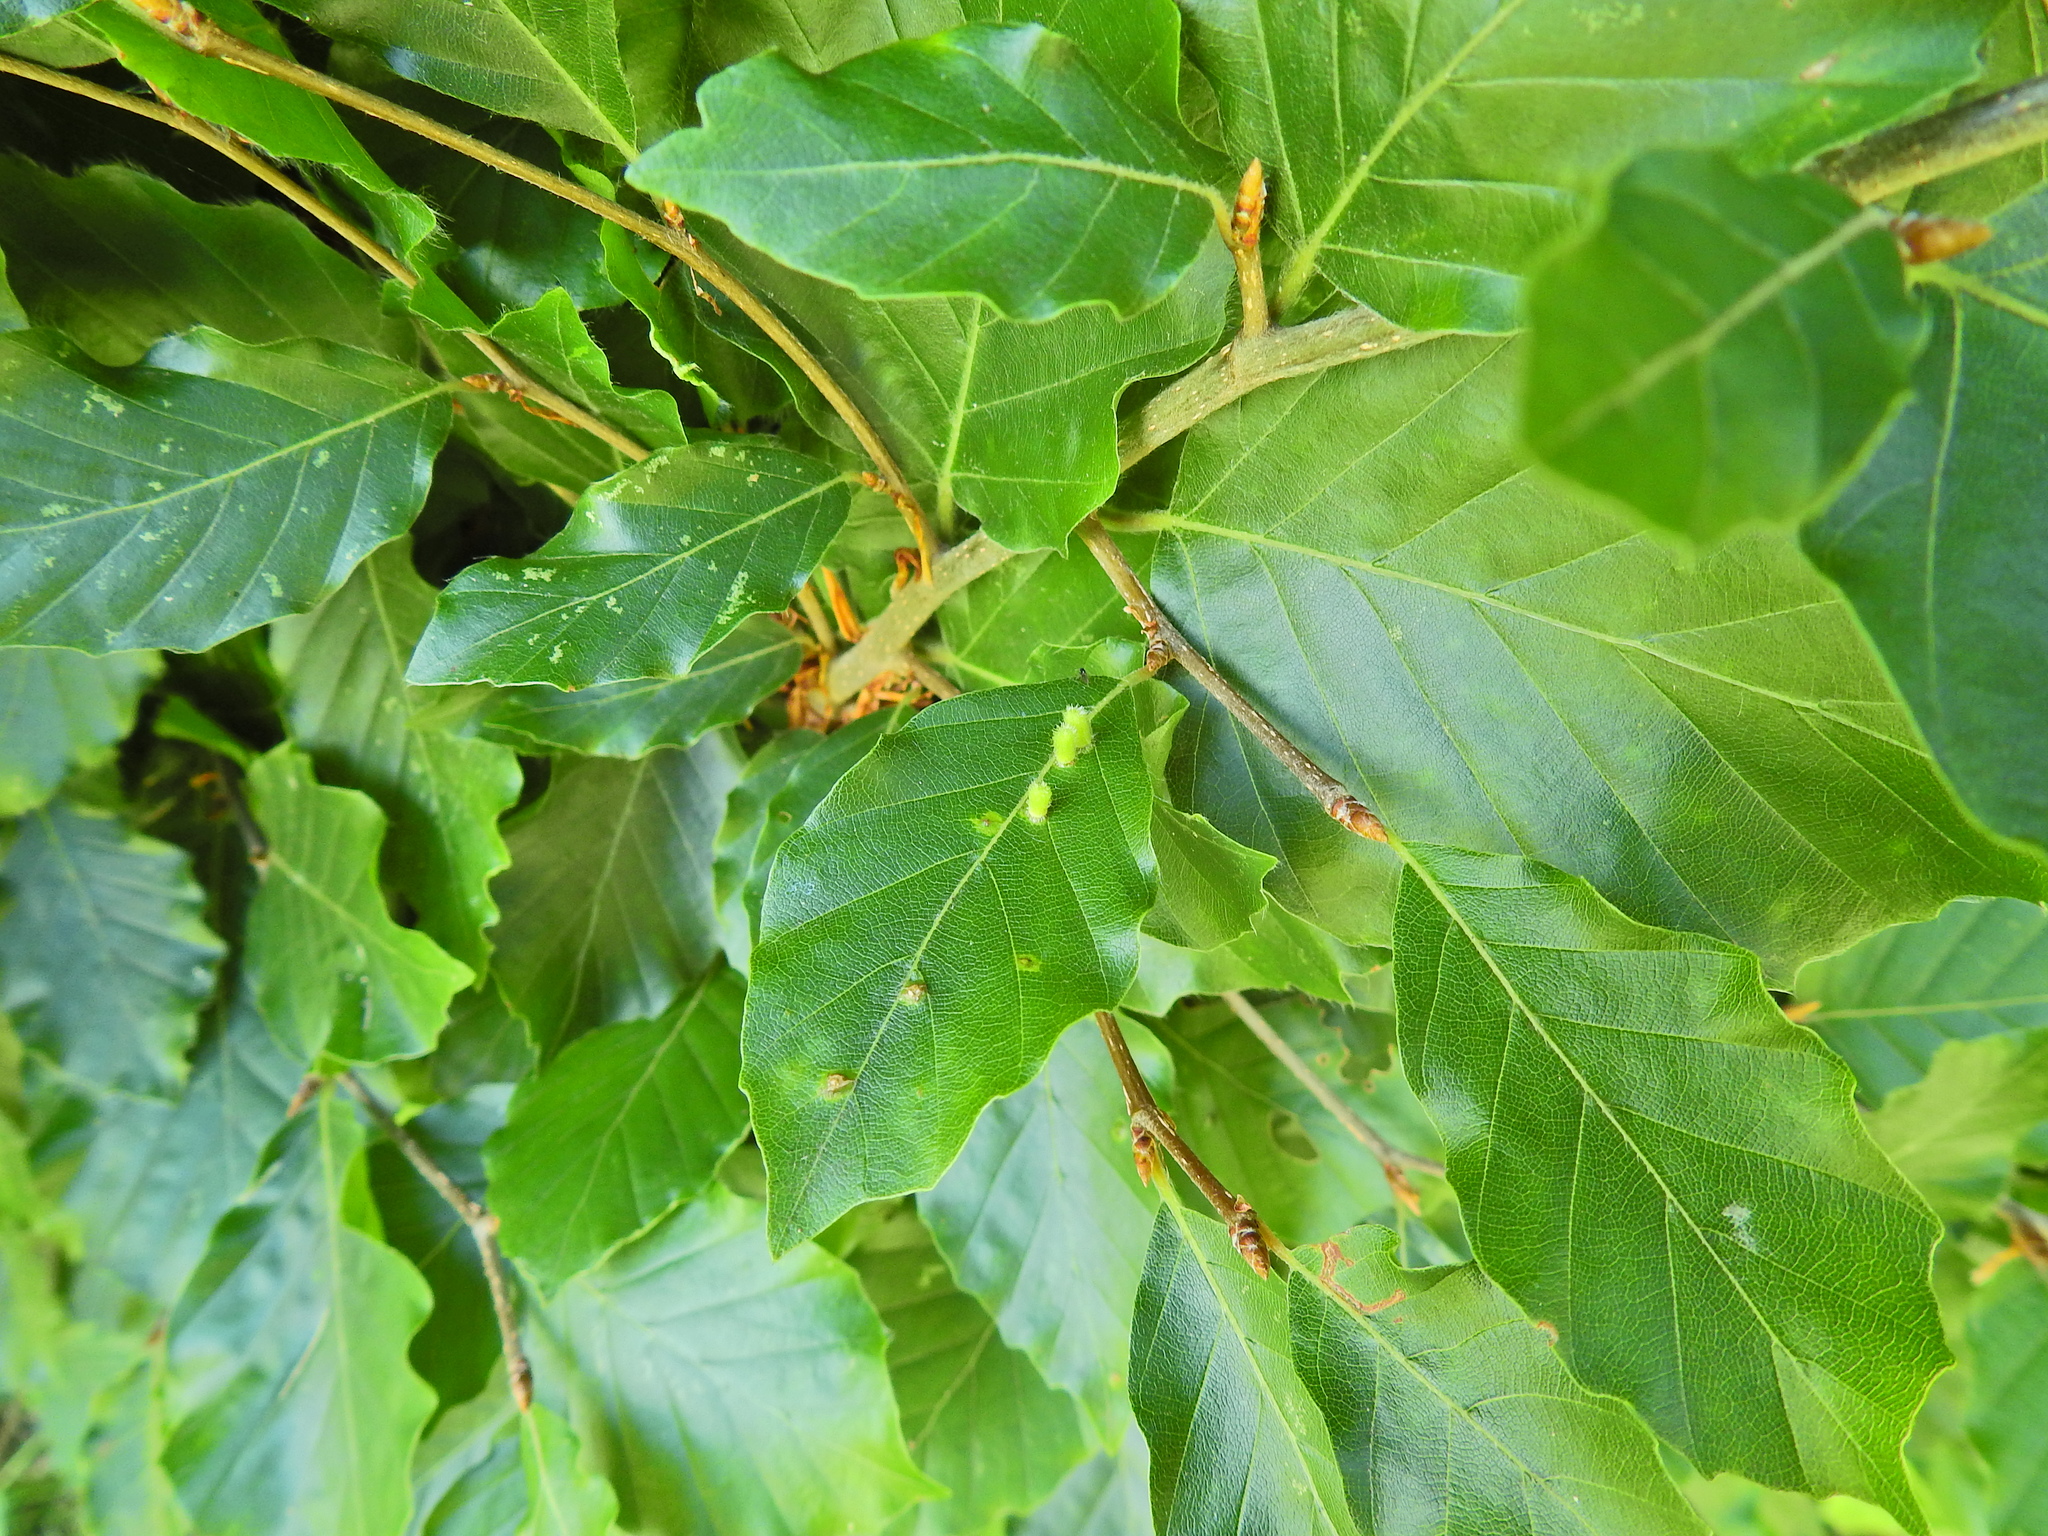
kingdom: Animalia
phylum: Arthropoda
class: Insecta
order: Diptera
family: Cecidomyiidae
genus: Hartigiola
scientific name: Hartigiola annulipes
